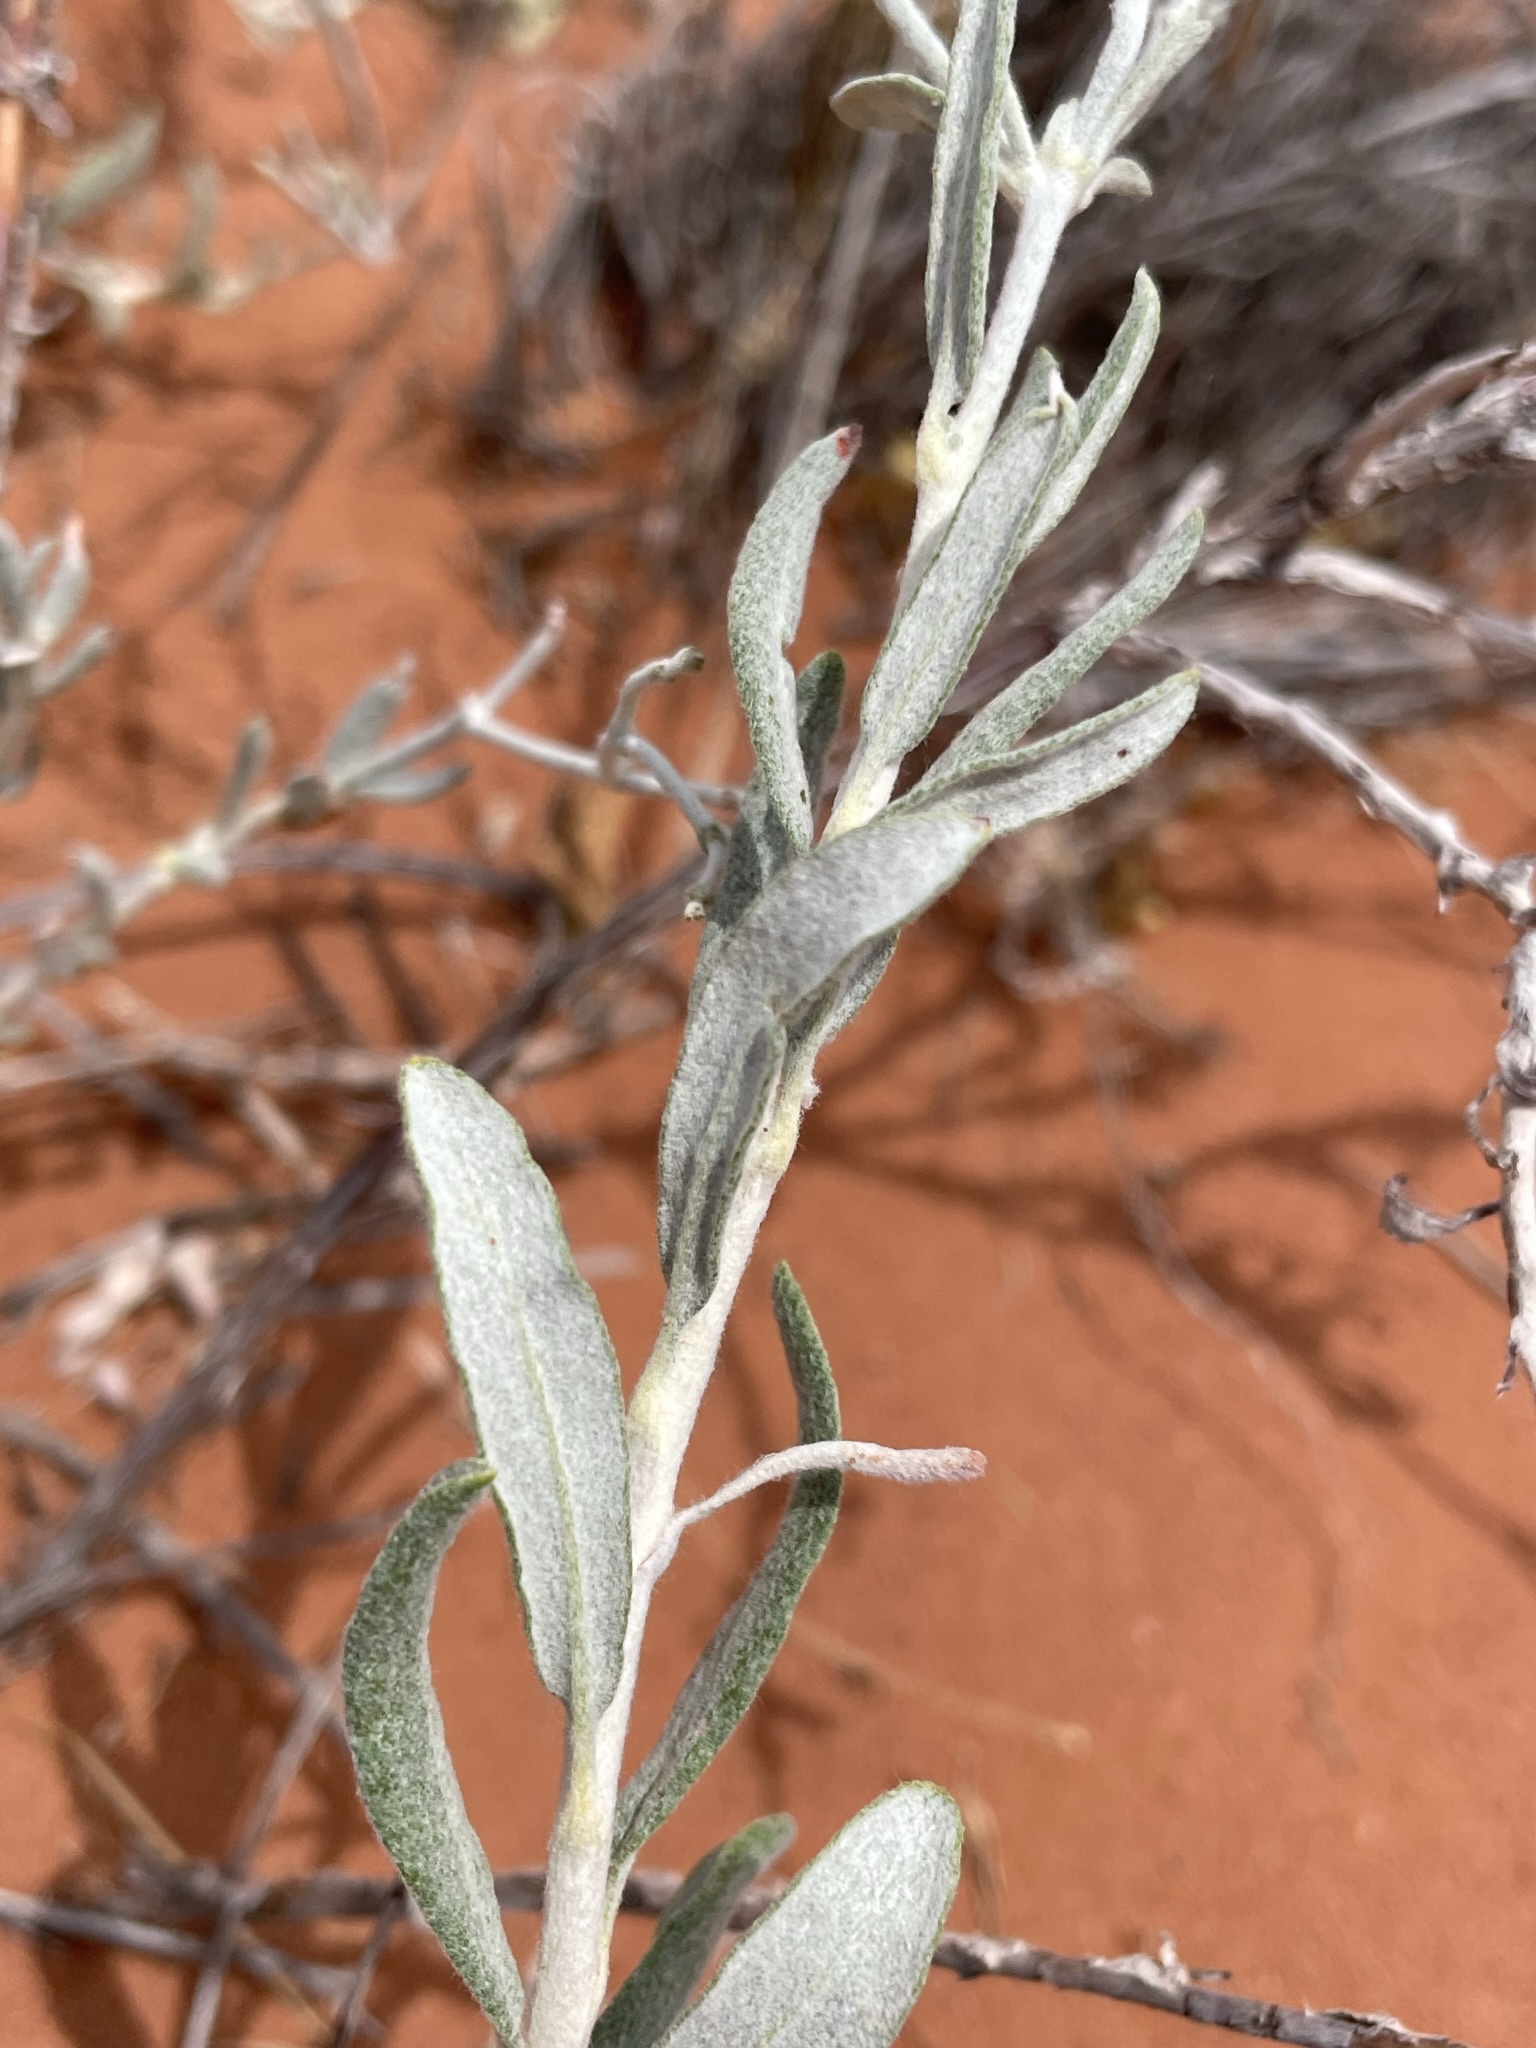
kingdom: Plantae
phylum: Tracheophyta
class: Magnoliopsida
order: Caryophyllales
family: Polygonaceae
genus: Eriogonum
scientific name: Eriogonum leptocladon
